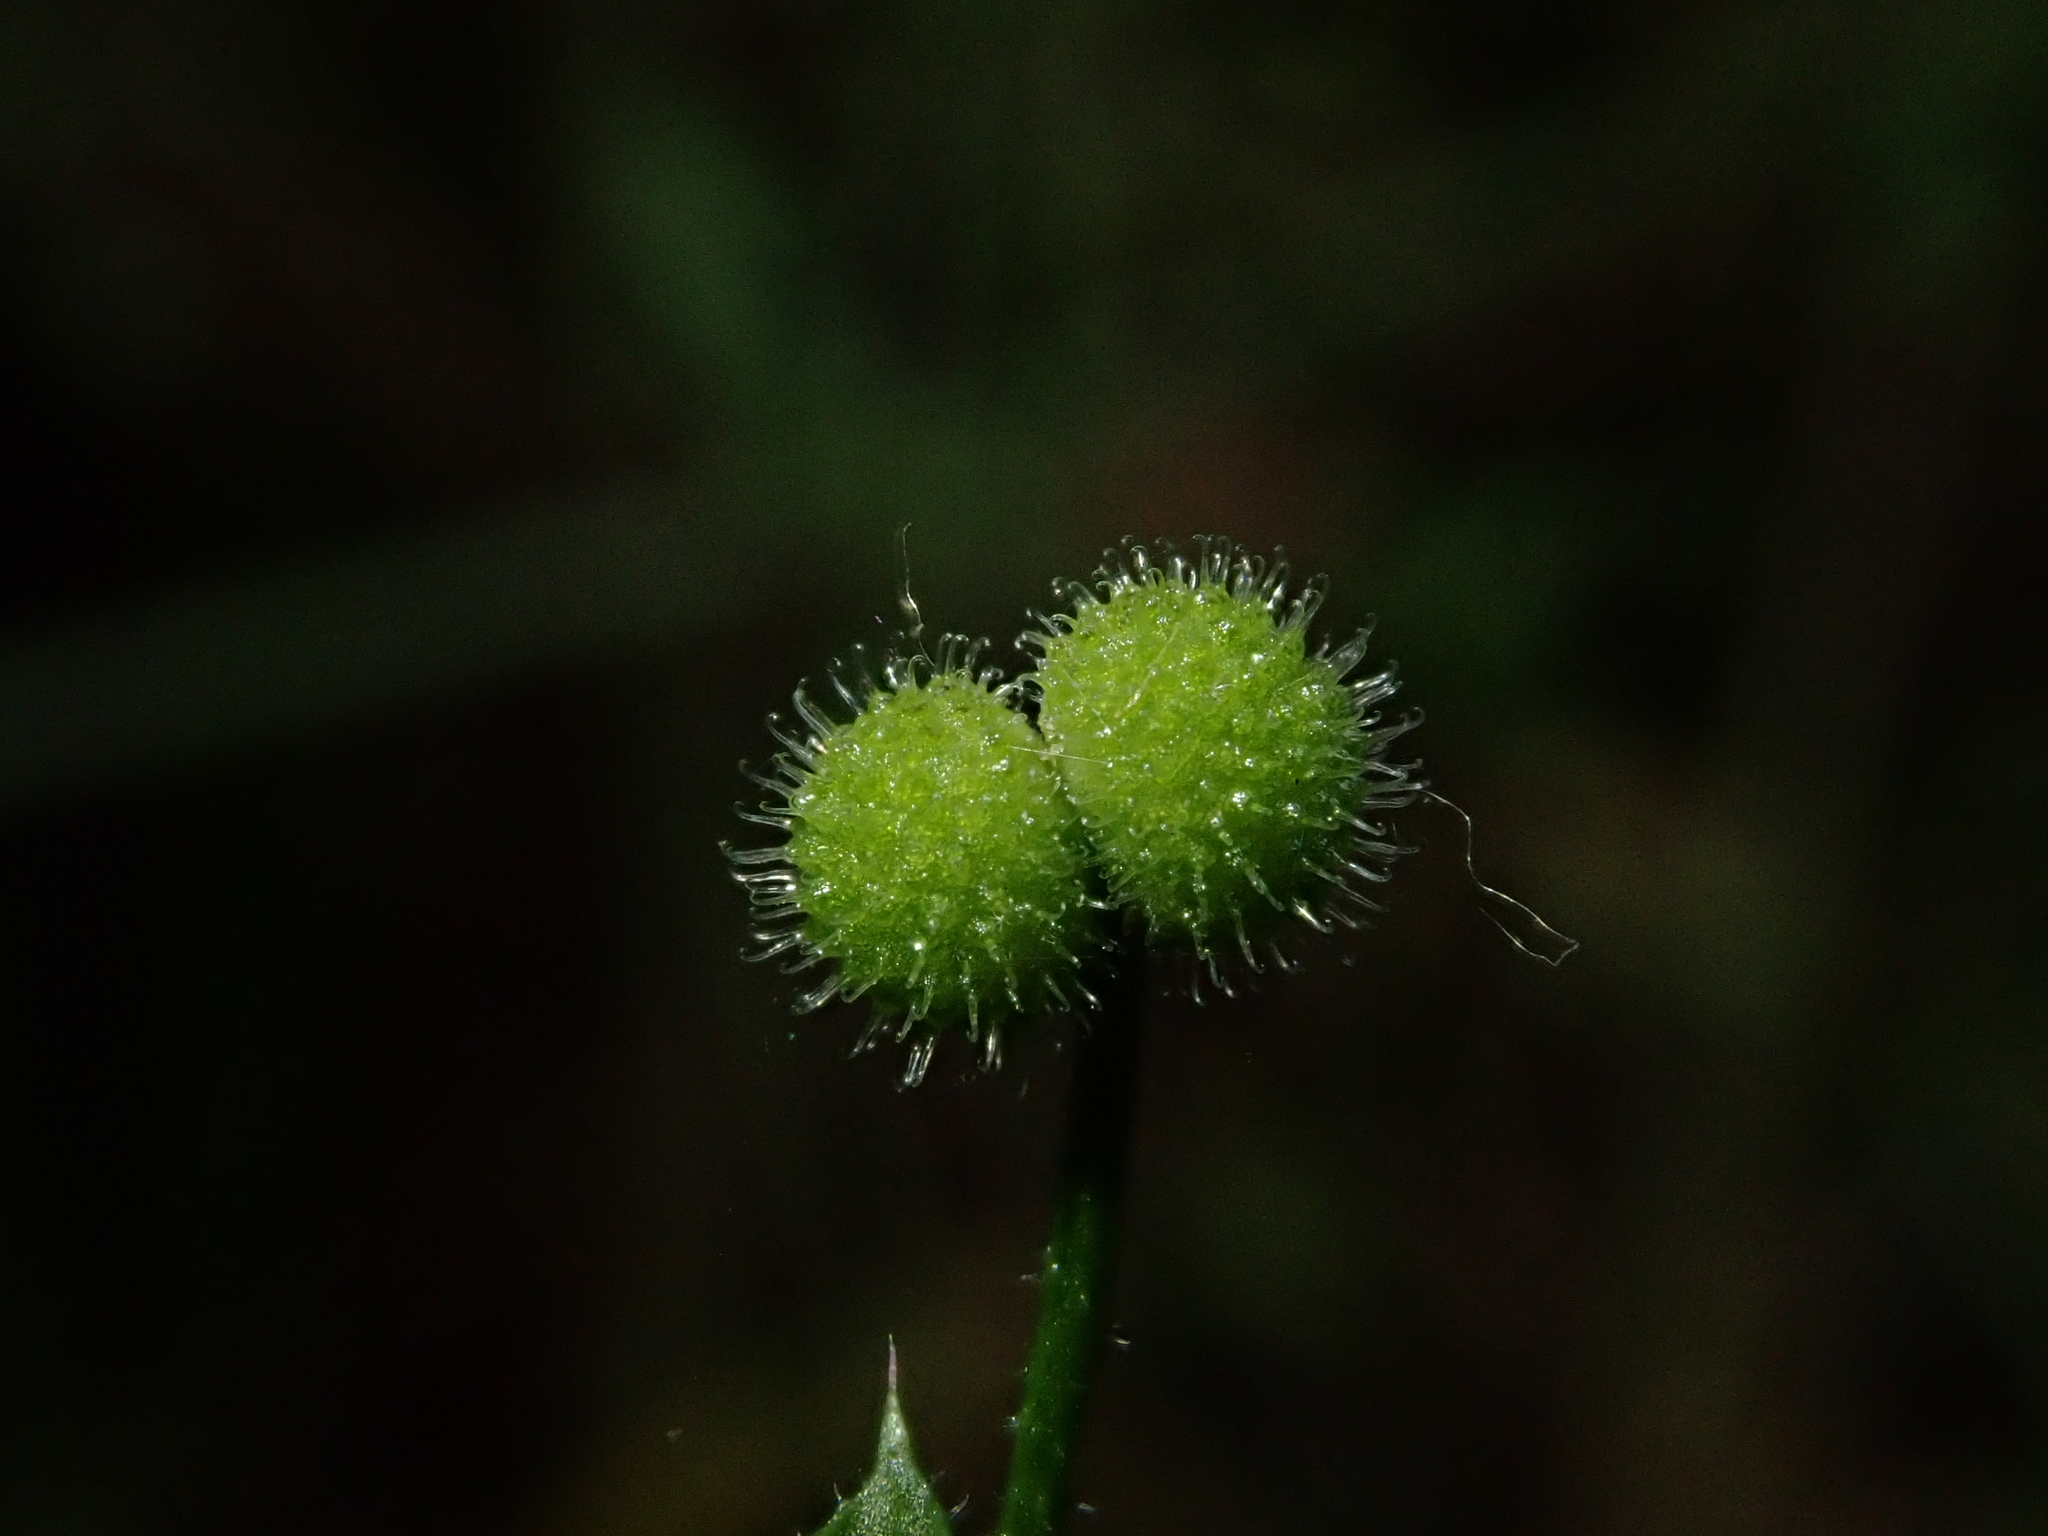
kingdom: Plantae
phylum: Tracheophyta
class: Magnoliopsida
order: Gentianales
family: Rubiaceae
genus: Galium
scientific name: Galium aparine
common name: Cleavers
